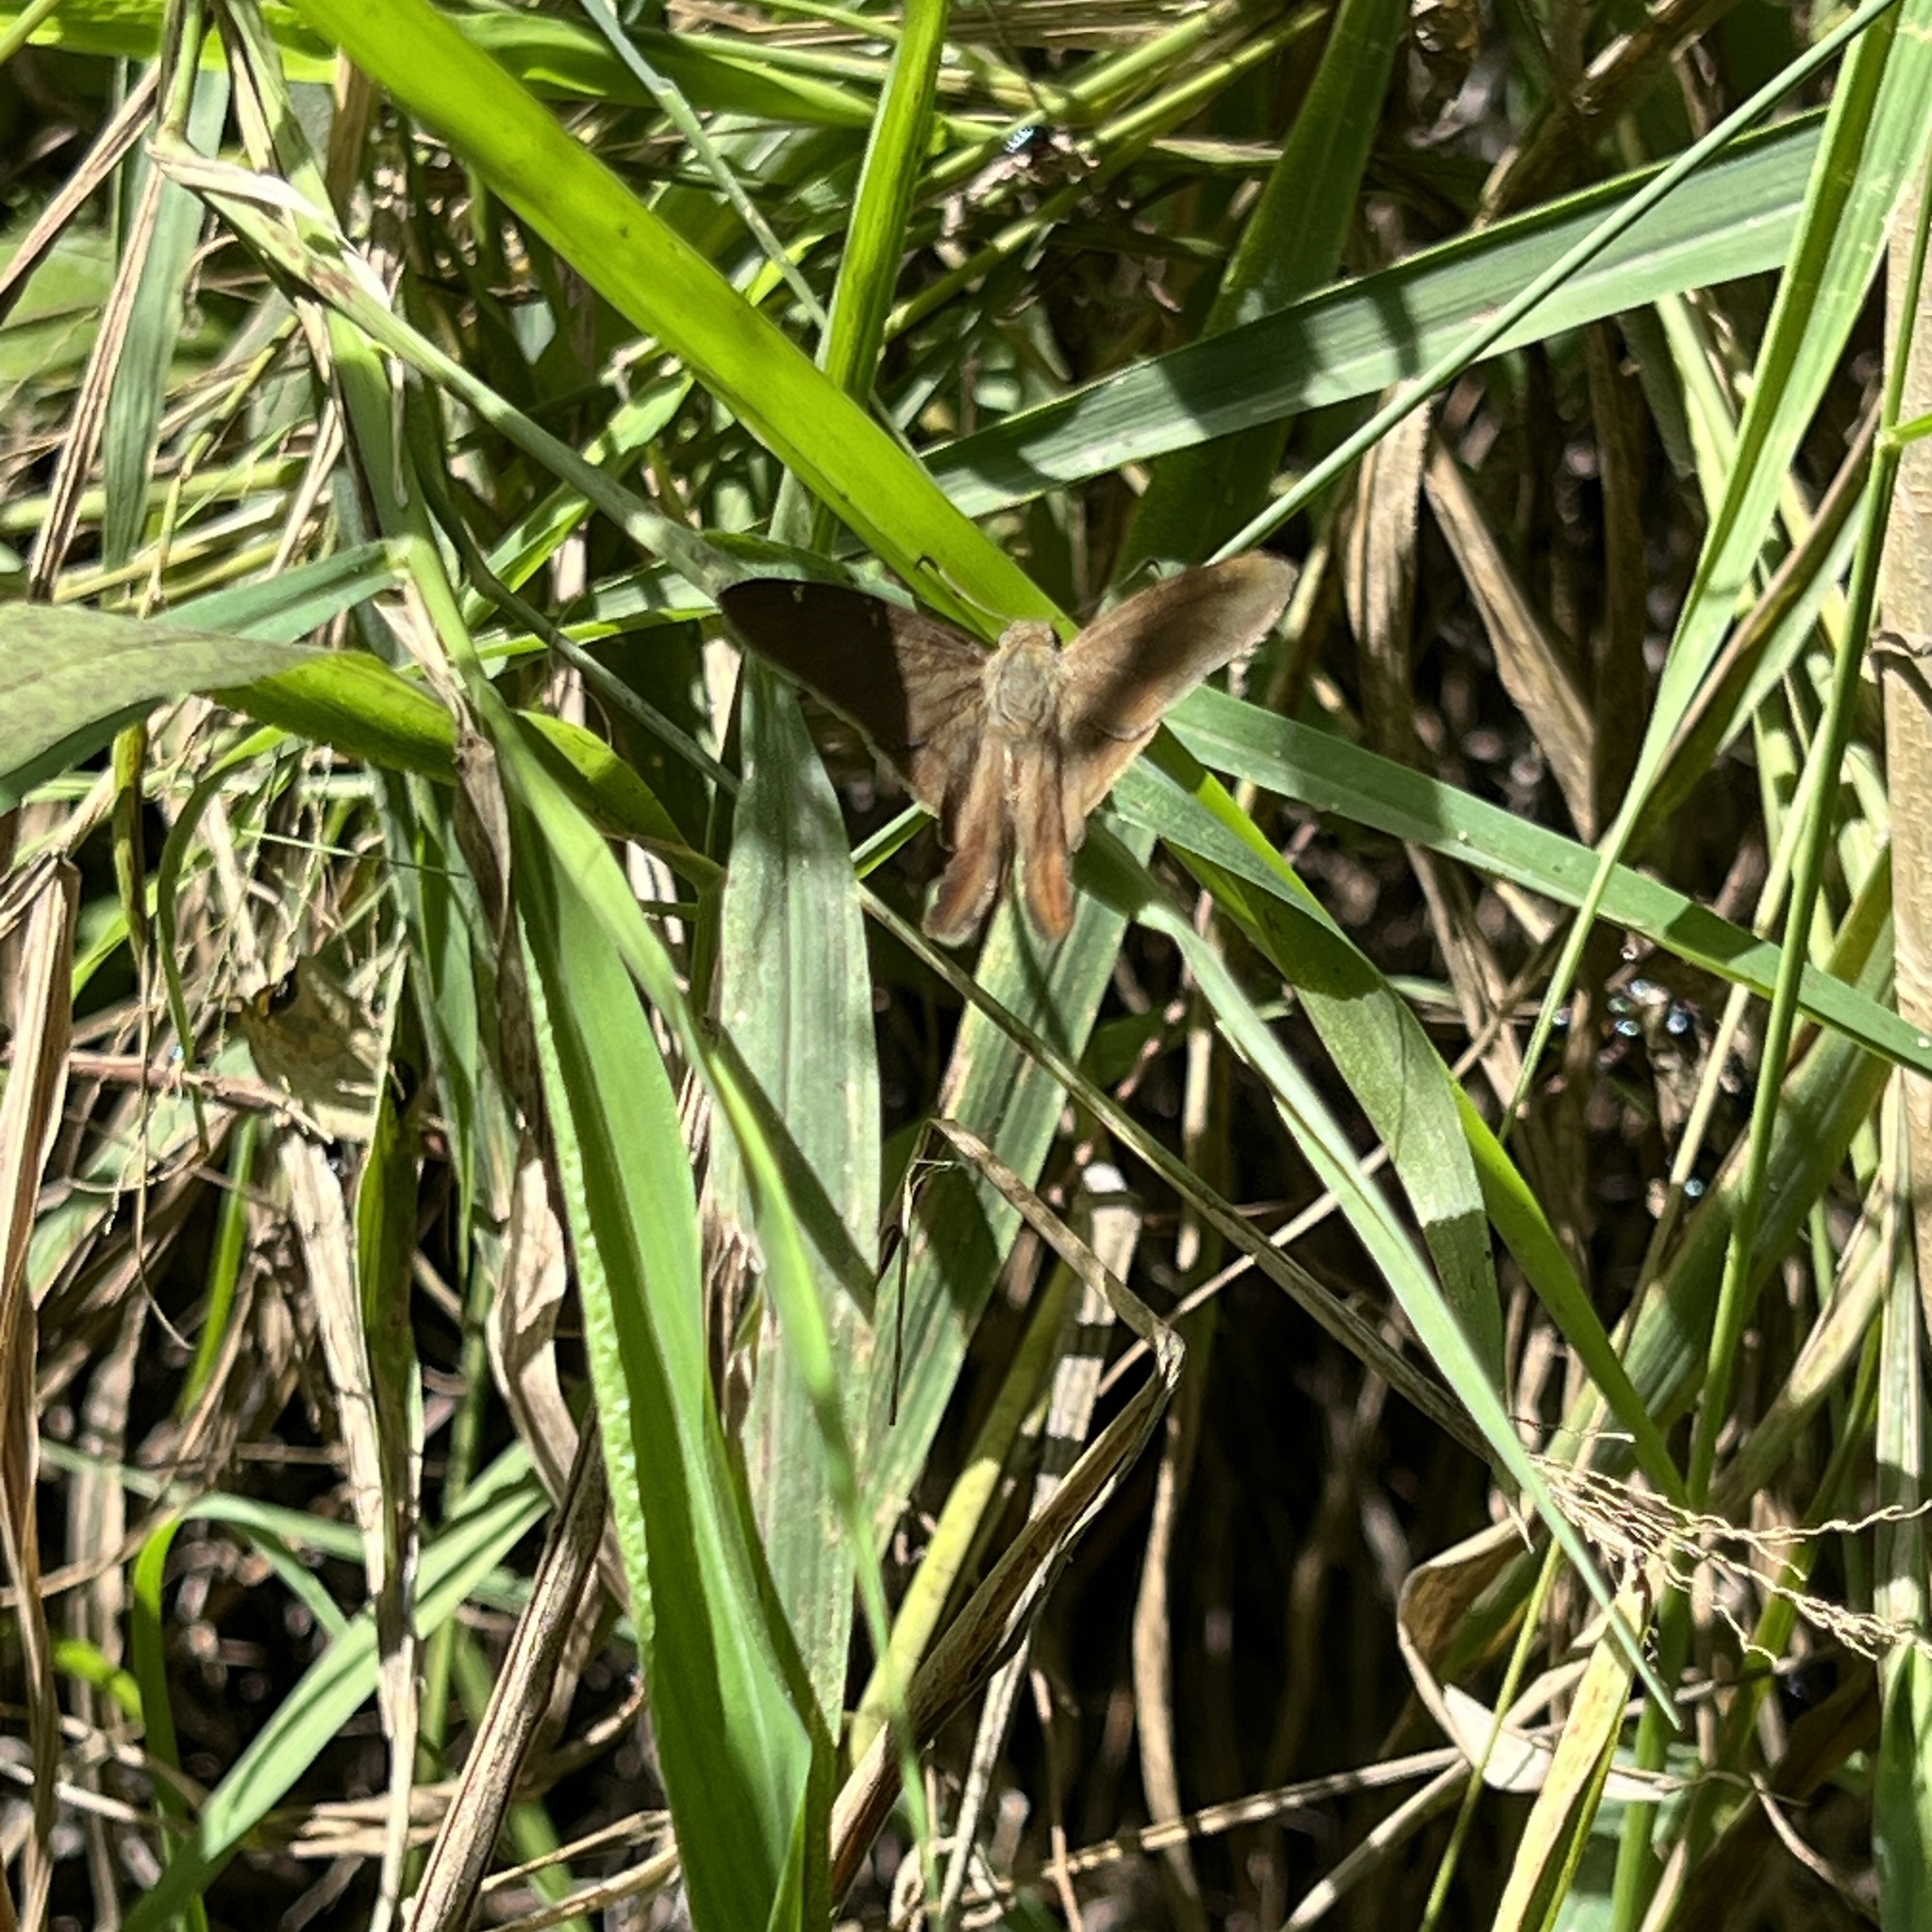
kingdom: Animalia
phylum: Arthropoda
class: Insecta
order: Lepidoptera
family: Hesperiidae
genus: Urbanus
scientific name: Urbanus procne
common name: Brown longtail
